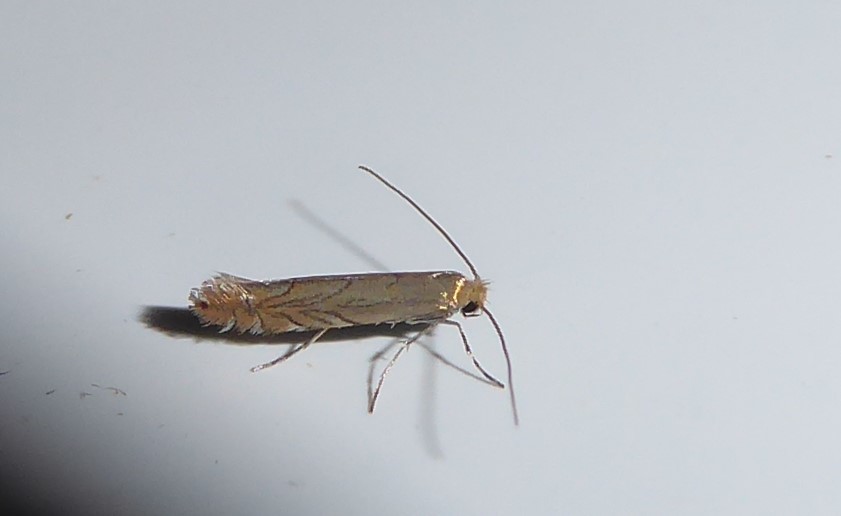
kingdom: Animalia
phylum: Arthropoda
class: Insecta
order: Lepidoptera
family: Gracillariidae
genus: Phyllonorycter
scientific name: Phyllonorycter messaniella
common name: Garden midget
